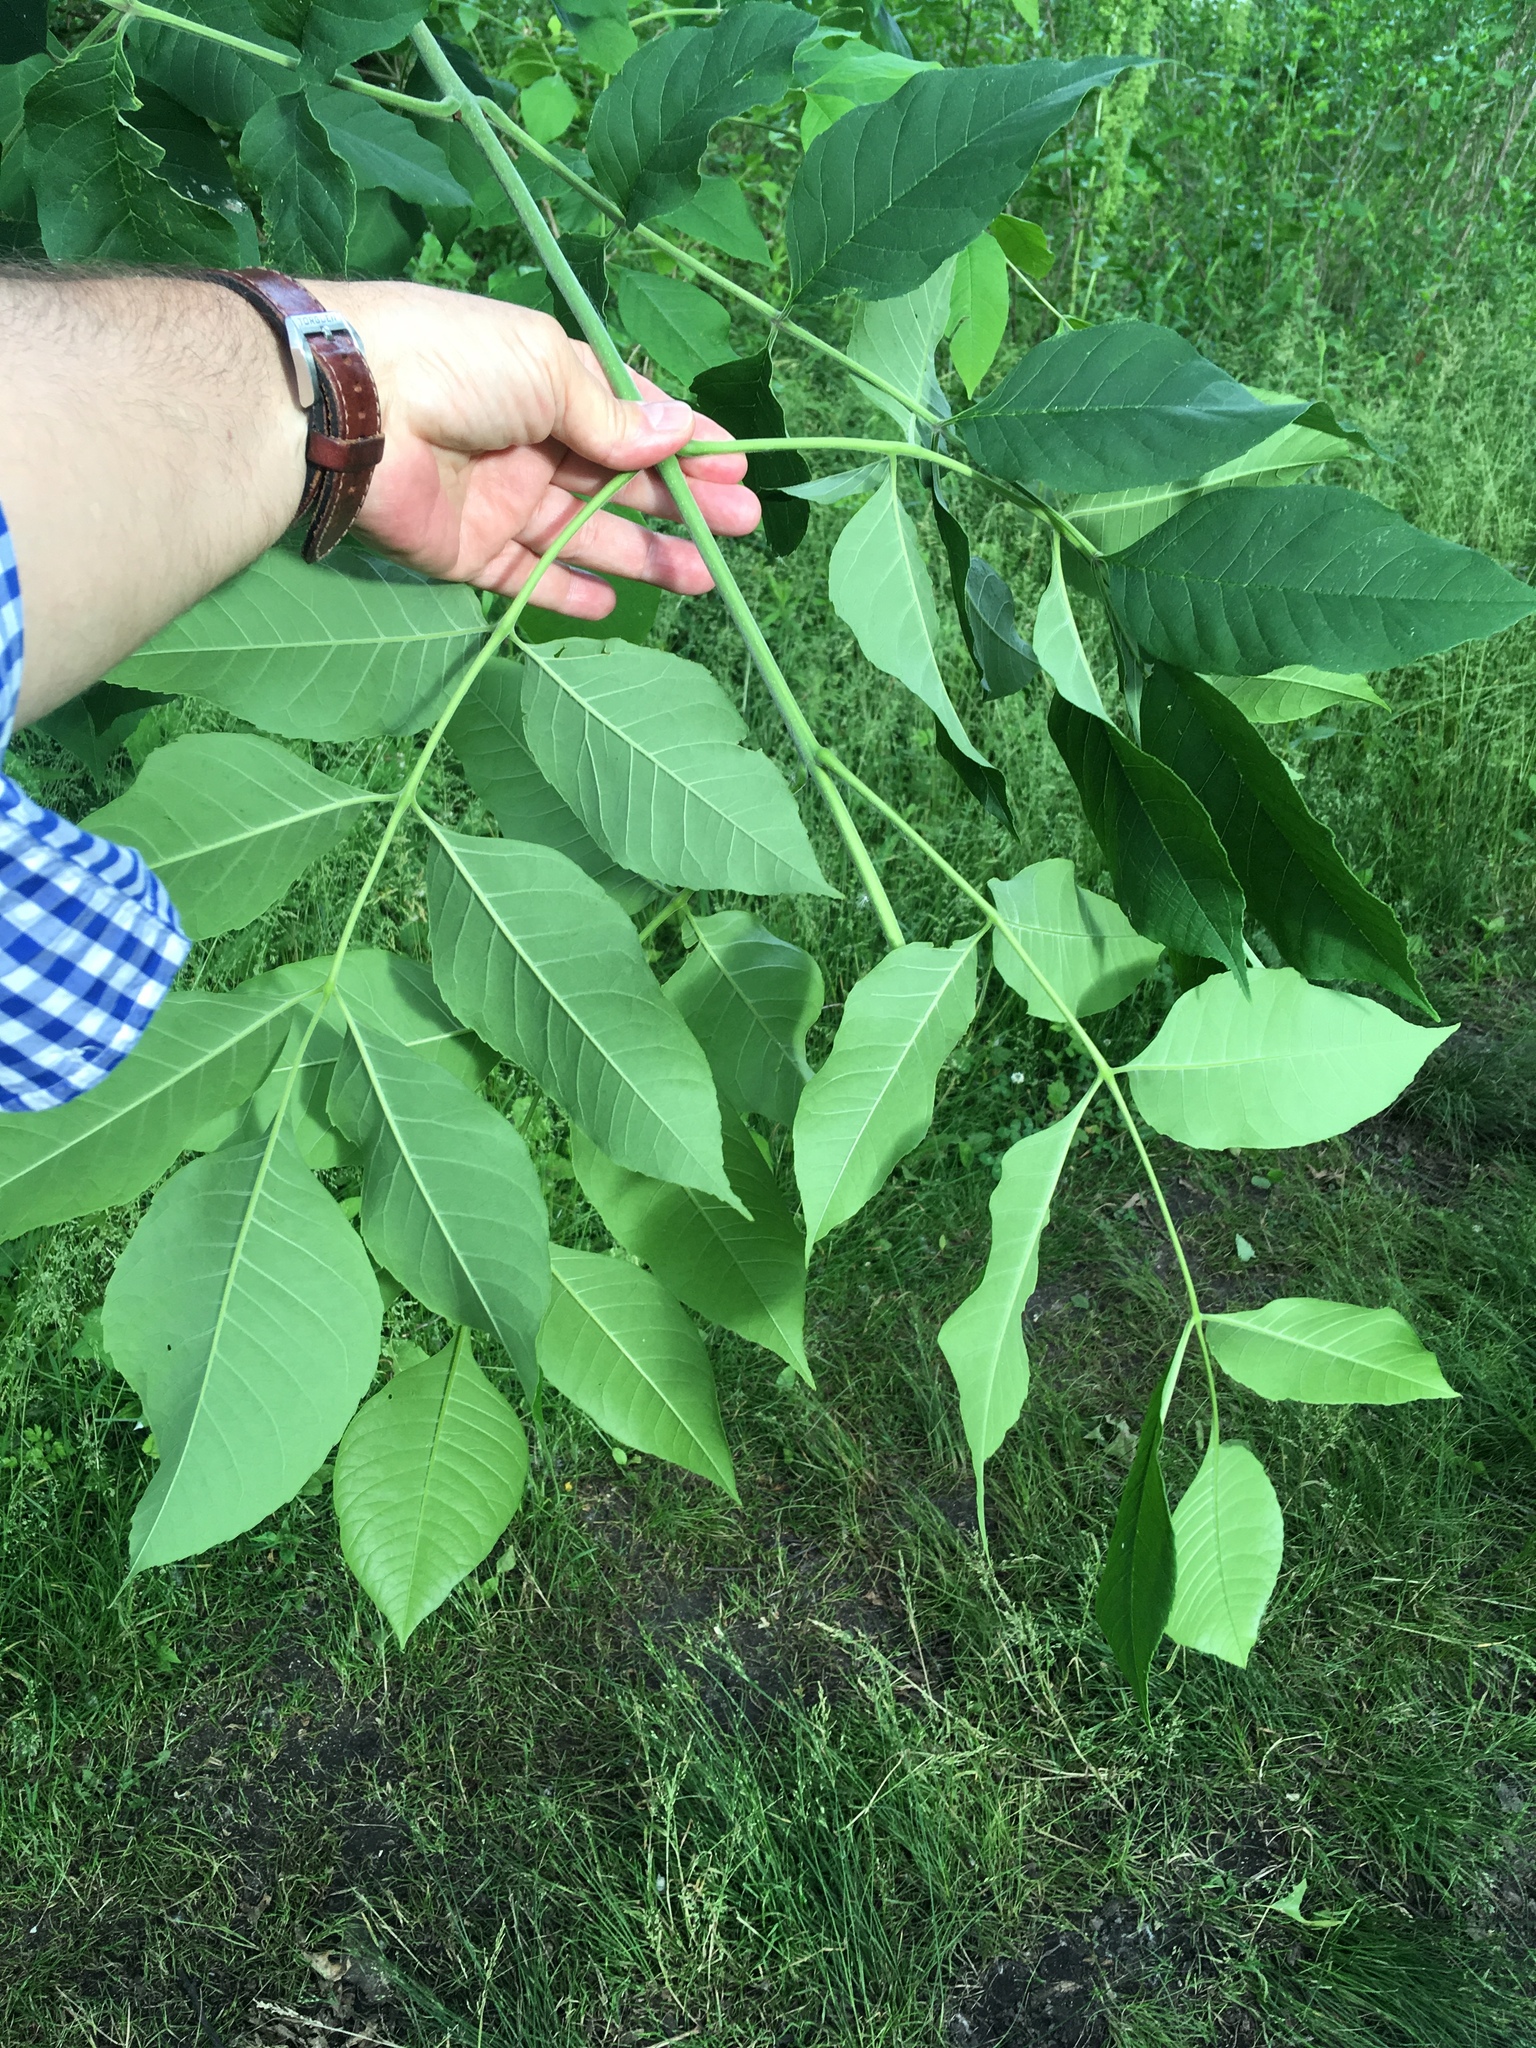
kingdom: Plantae
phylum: Tracheophyta
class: Magnoliopsida
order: Lamiales
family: Oleaceae
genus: Fraxinus
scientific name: Fraxinus pennsylvanica
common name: Green ash
